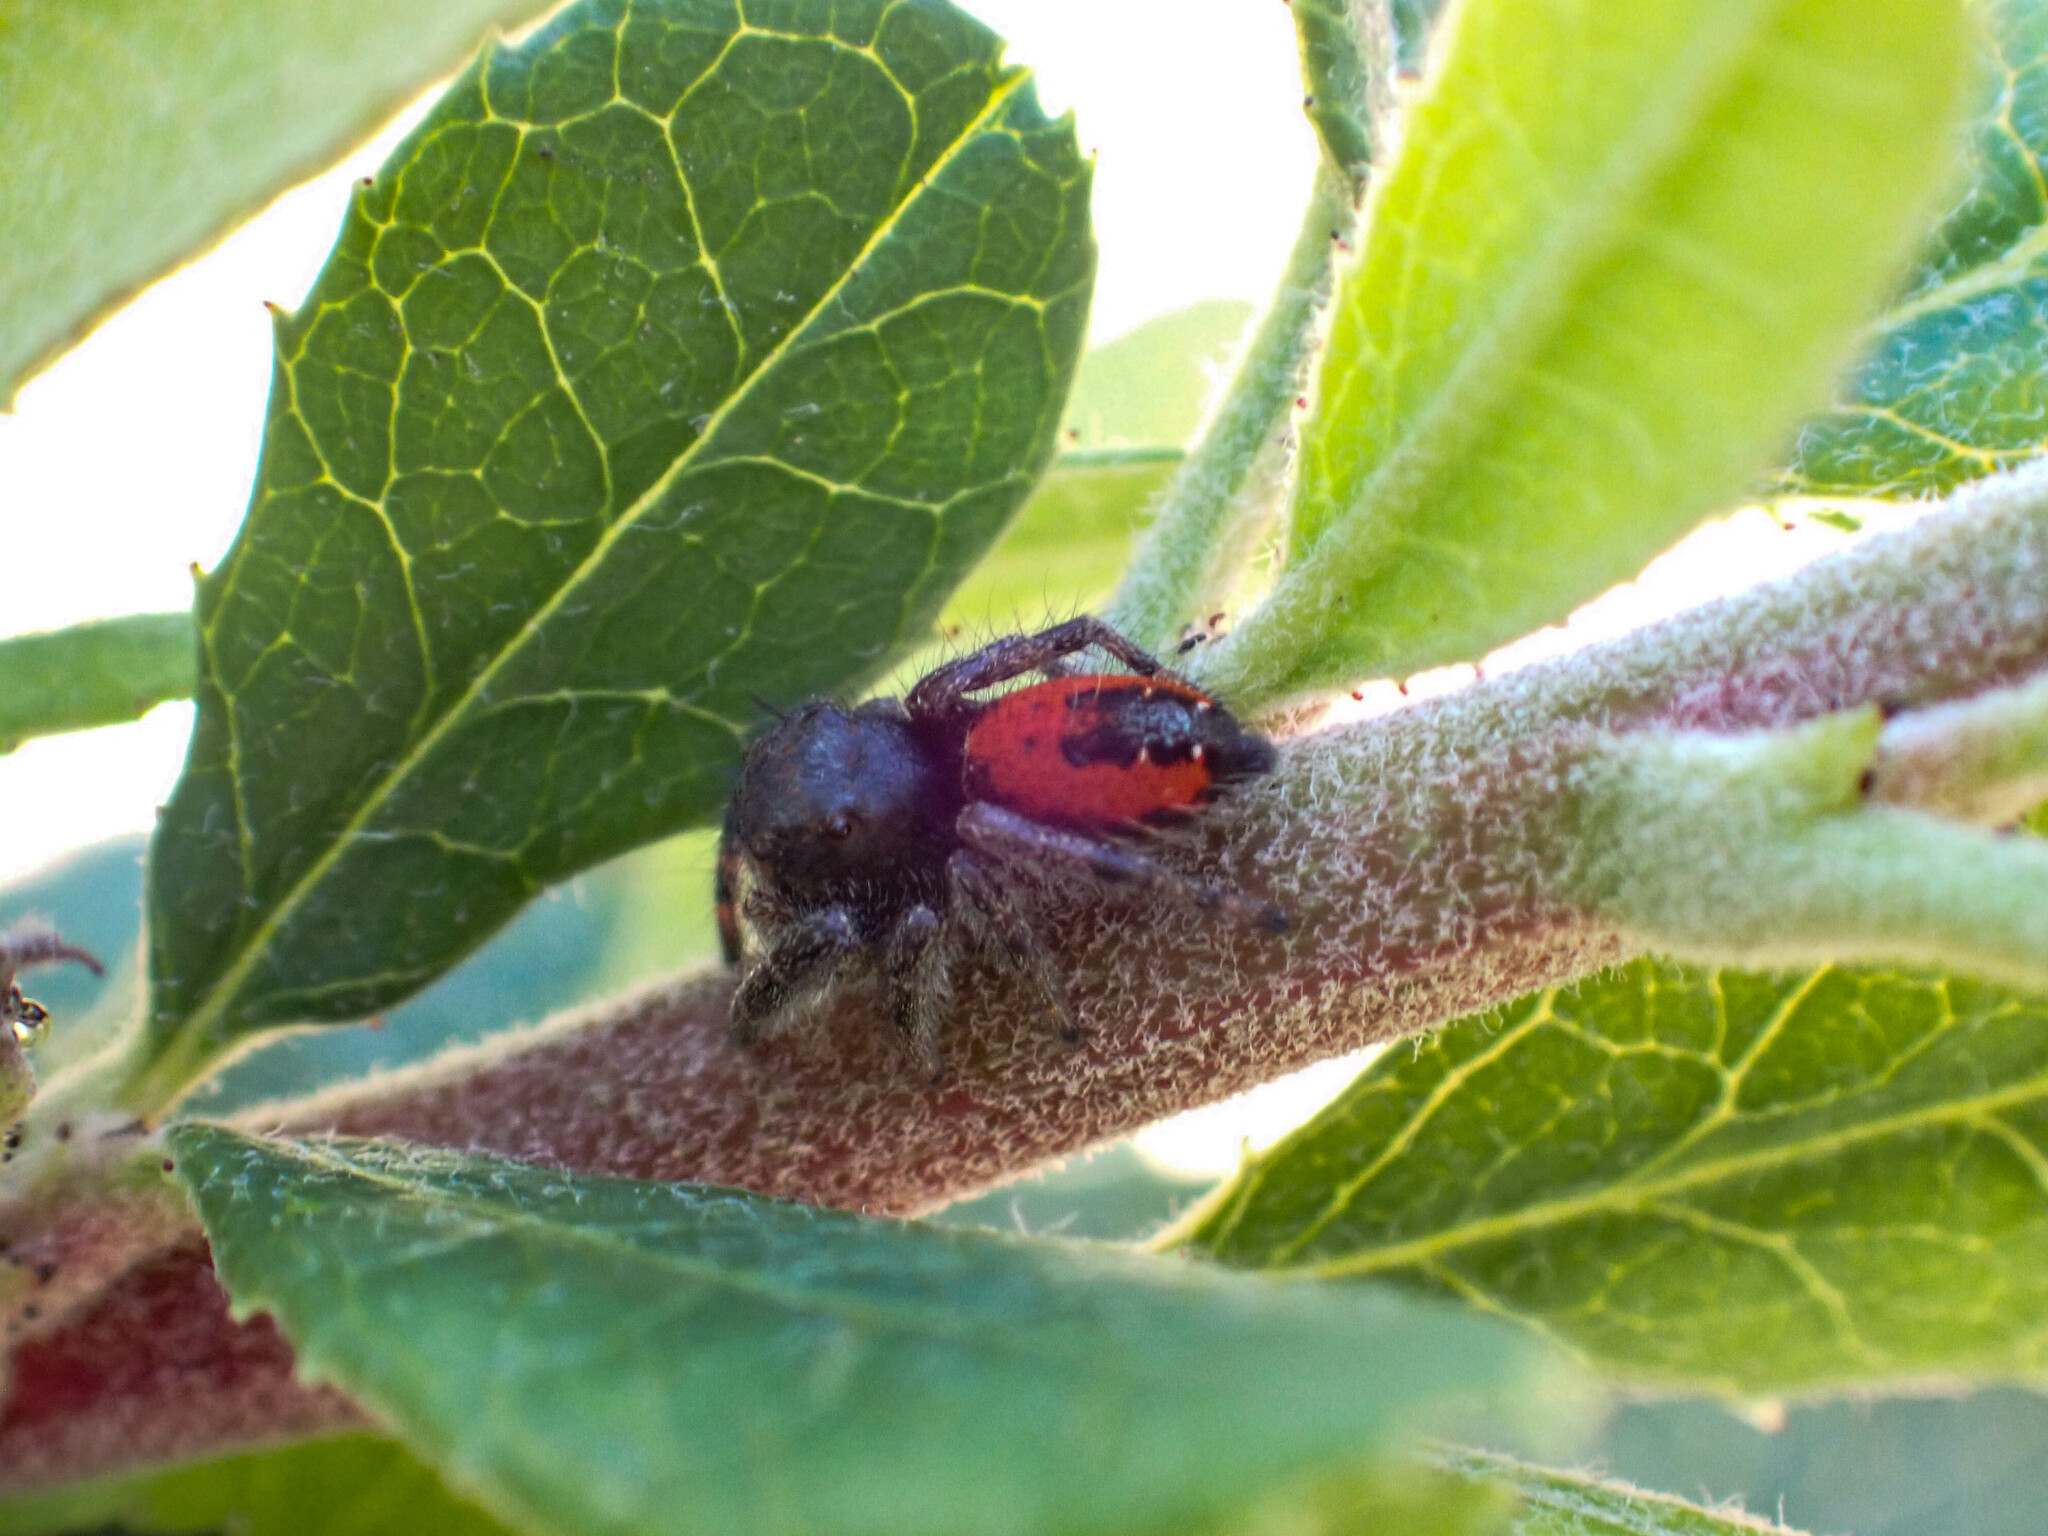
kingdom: Animalia
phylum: Arthropoda
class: Arachnida
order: Araneae
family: Salticidae
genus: Phidippus
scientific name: Phidippus johnsoni
